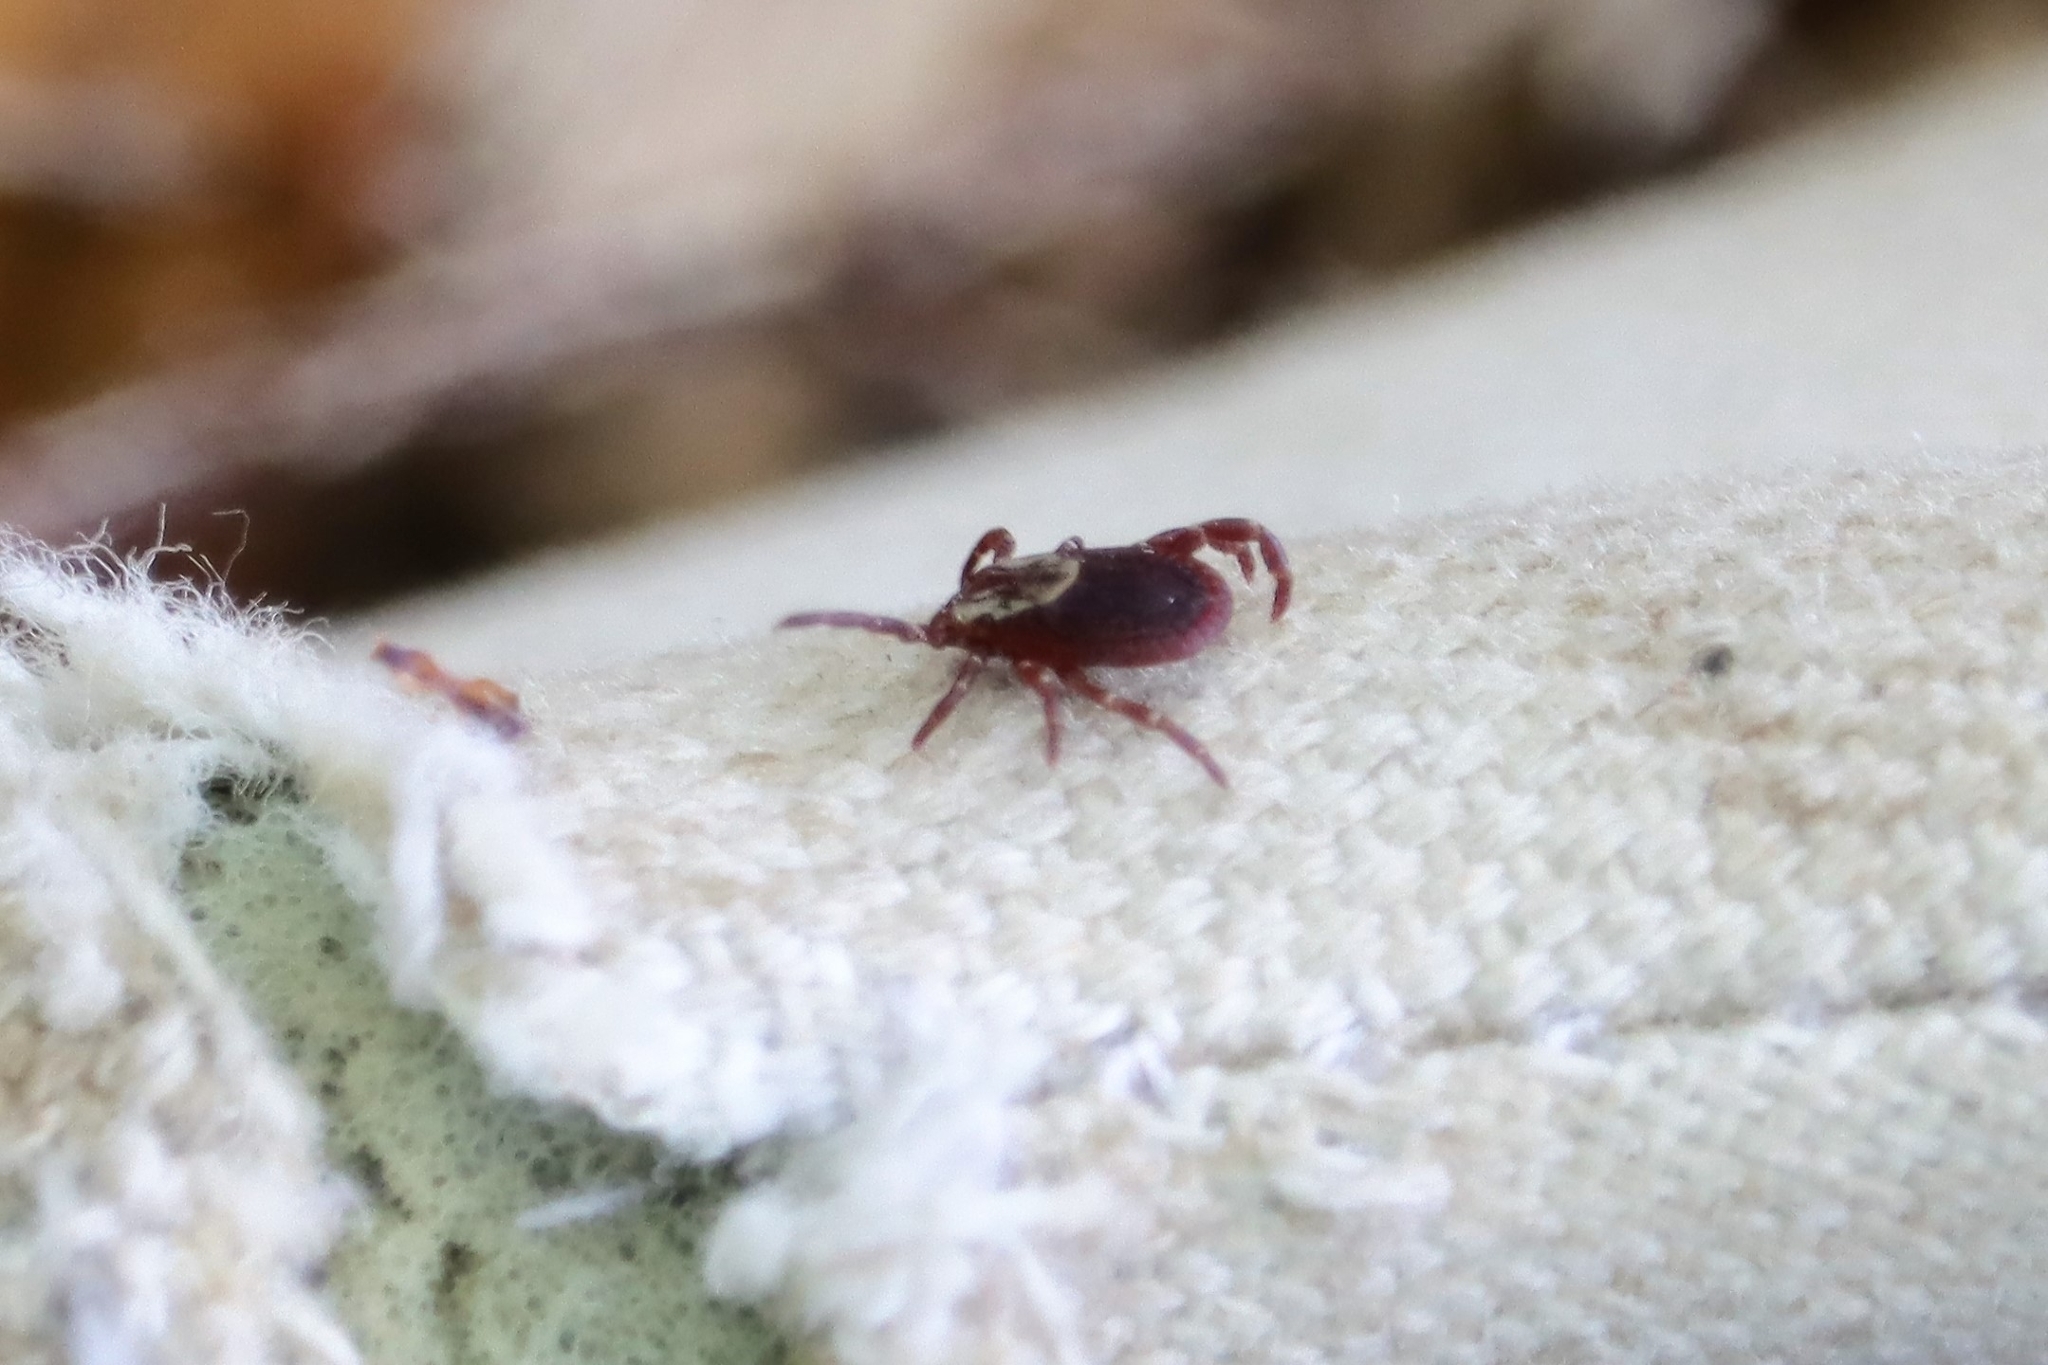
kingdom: Animalia
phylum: Arthropoda
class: Arachnida
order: Ixodida
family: Ixodidae
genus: Dermacentor
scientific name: Dermacentor variabilis
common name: American dog tick
